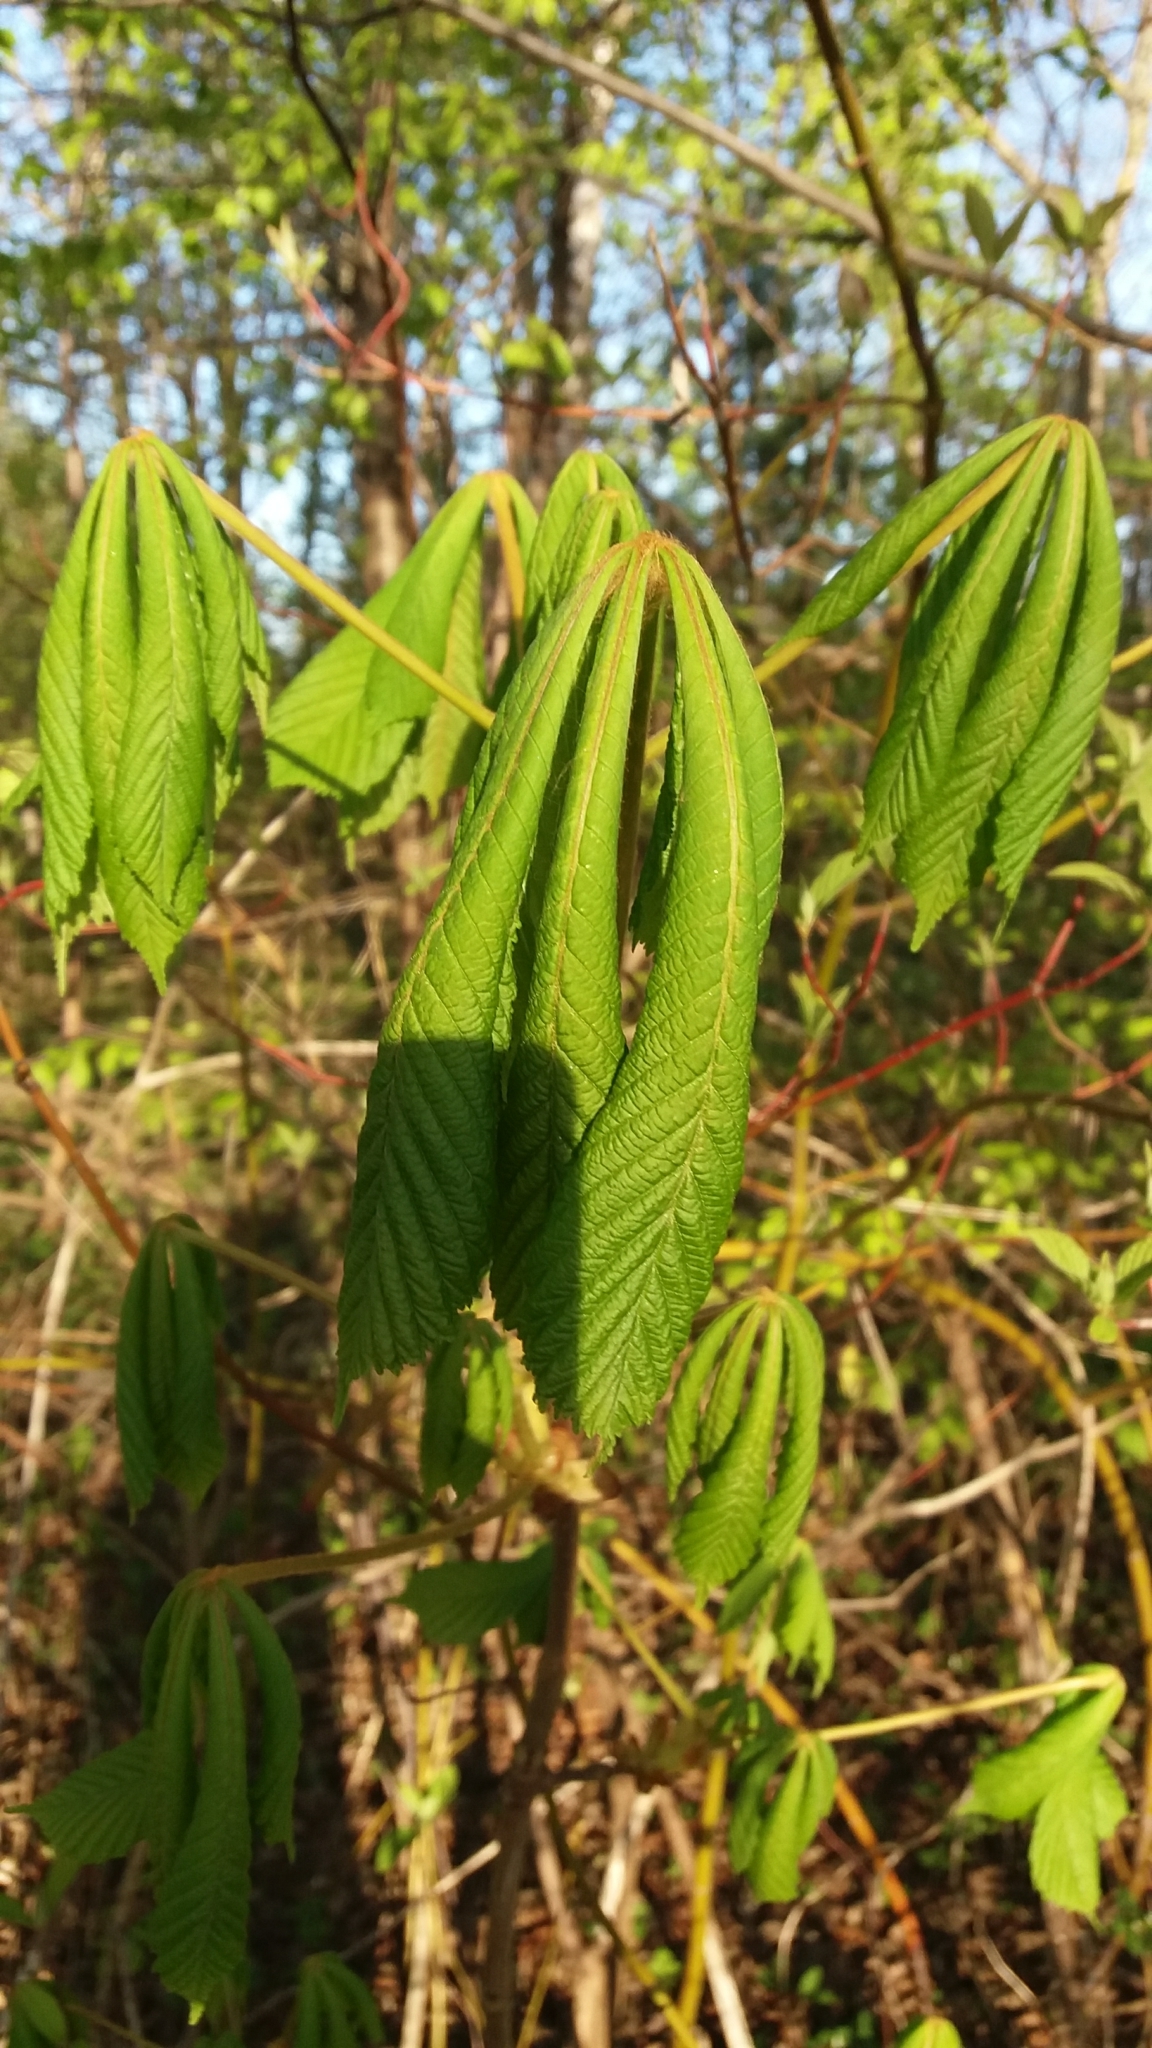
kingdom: Plantae
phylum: Tracheophyta
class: Magnoliopsida
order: Sapindales
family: Sapindaceae
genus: Aesculus
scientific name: Aesculus hippocastanum
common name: Horse-chestnut
